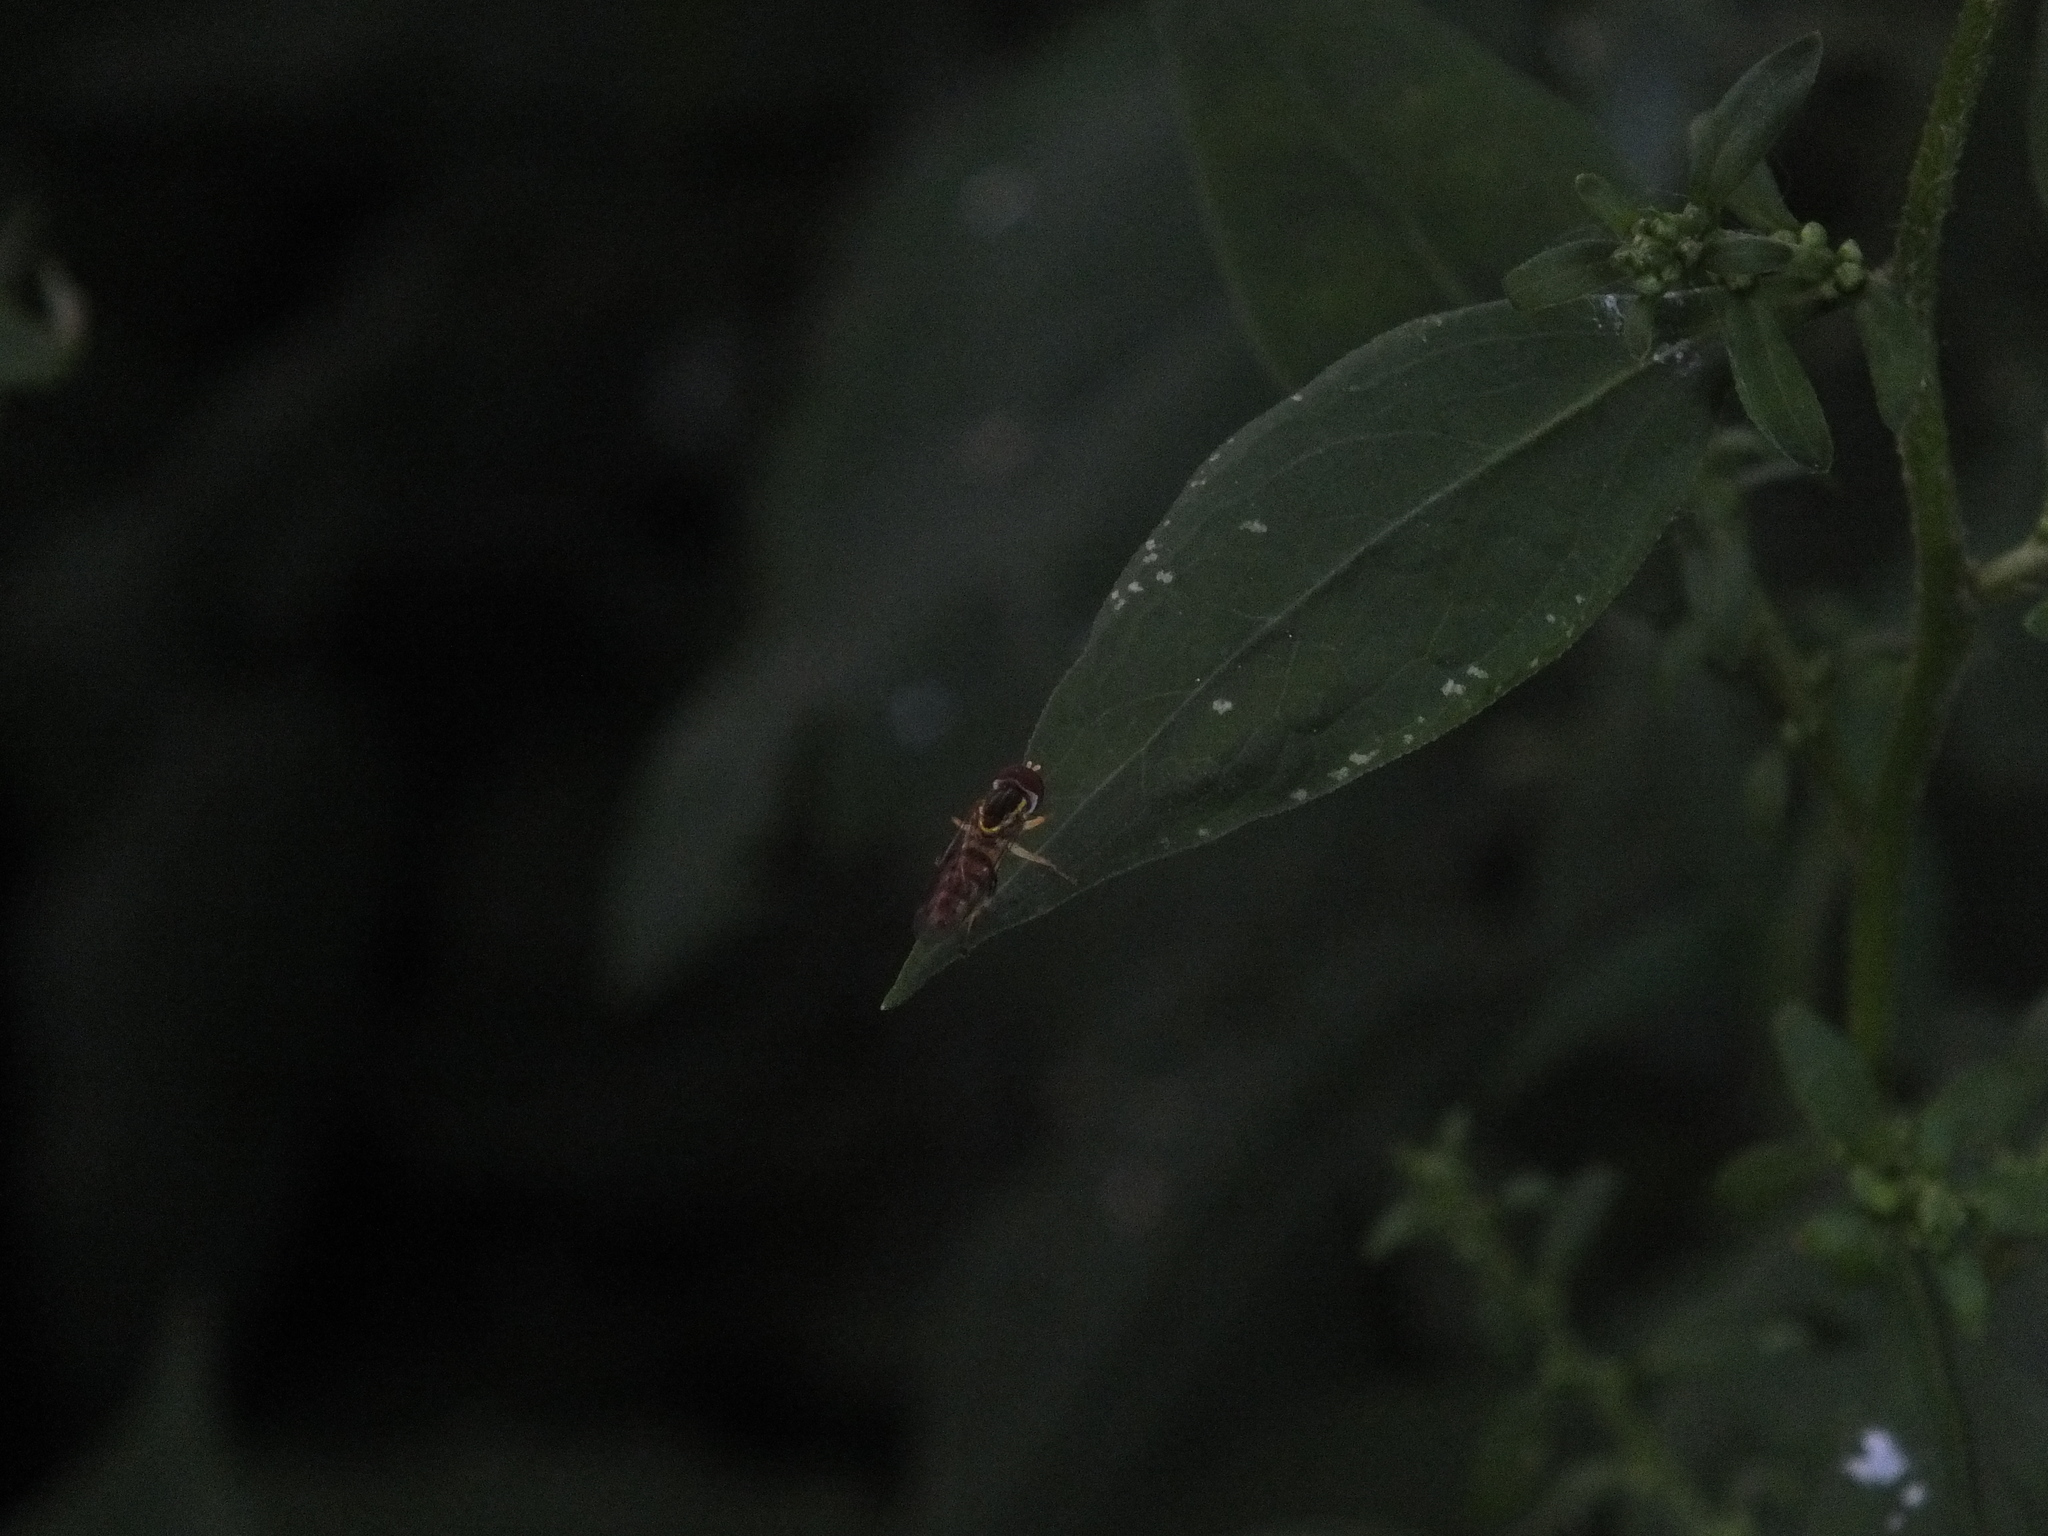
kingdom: Animalia
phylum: Arthropoda
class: Insecta
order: Diptera
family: Syrphidae
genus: Toxomerus
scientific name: Toxomerus geminatus
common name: Eastern calligrapher
